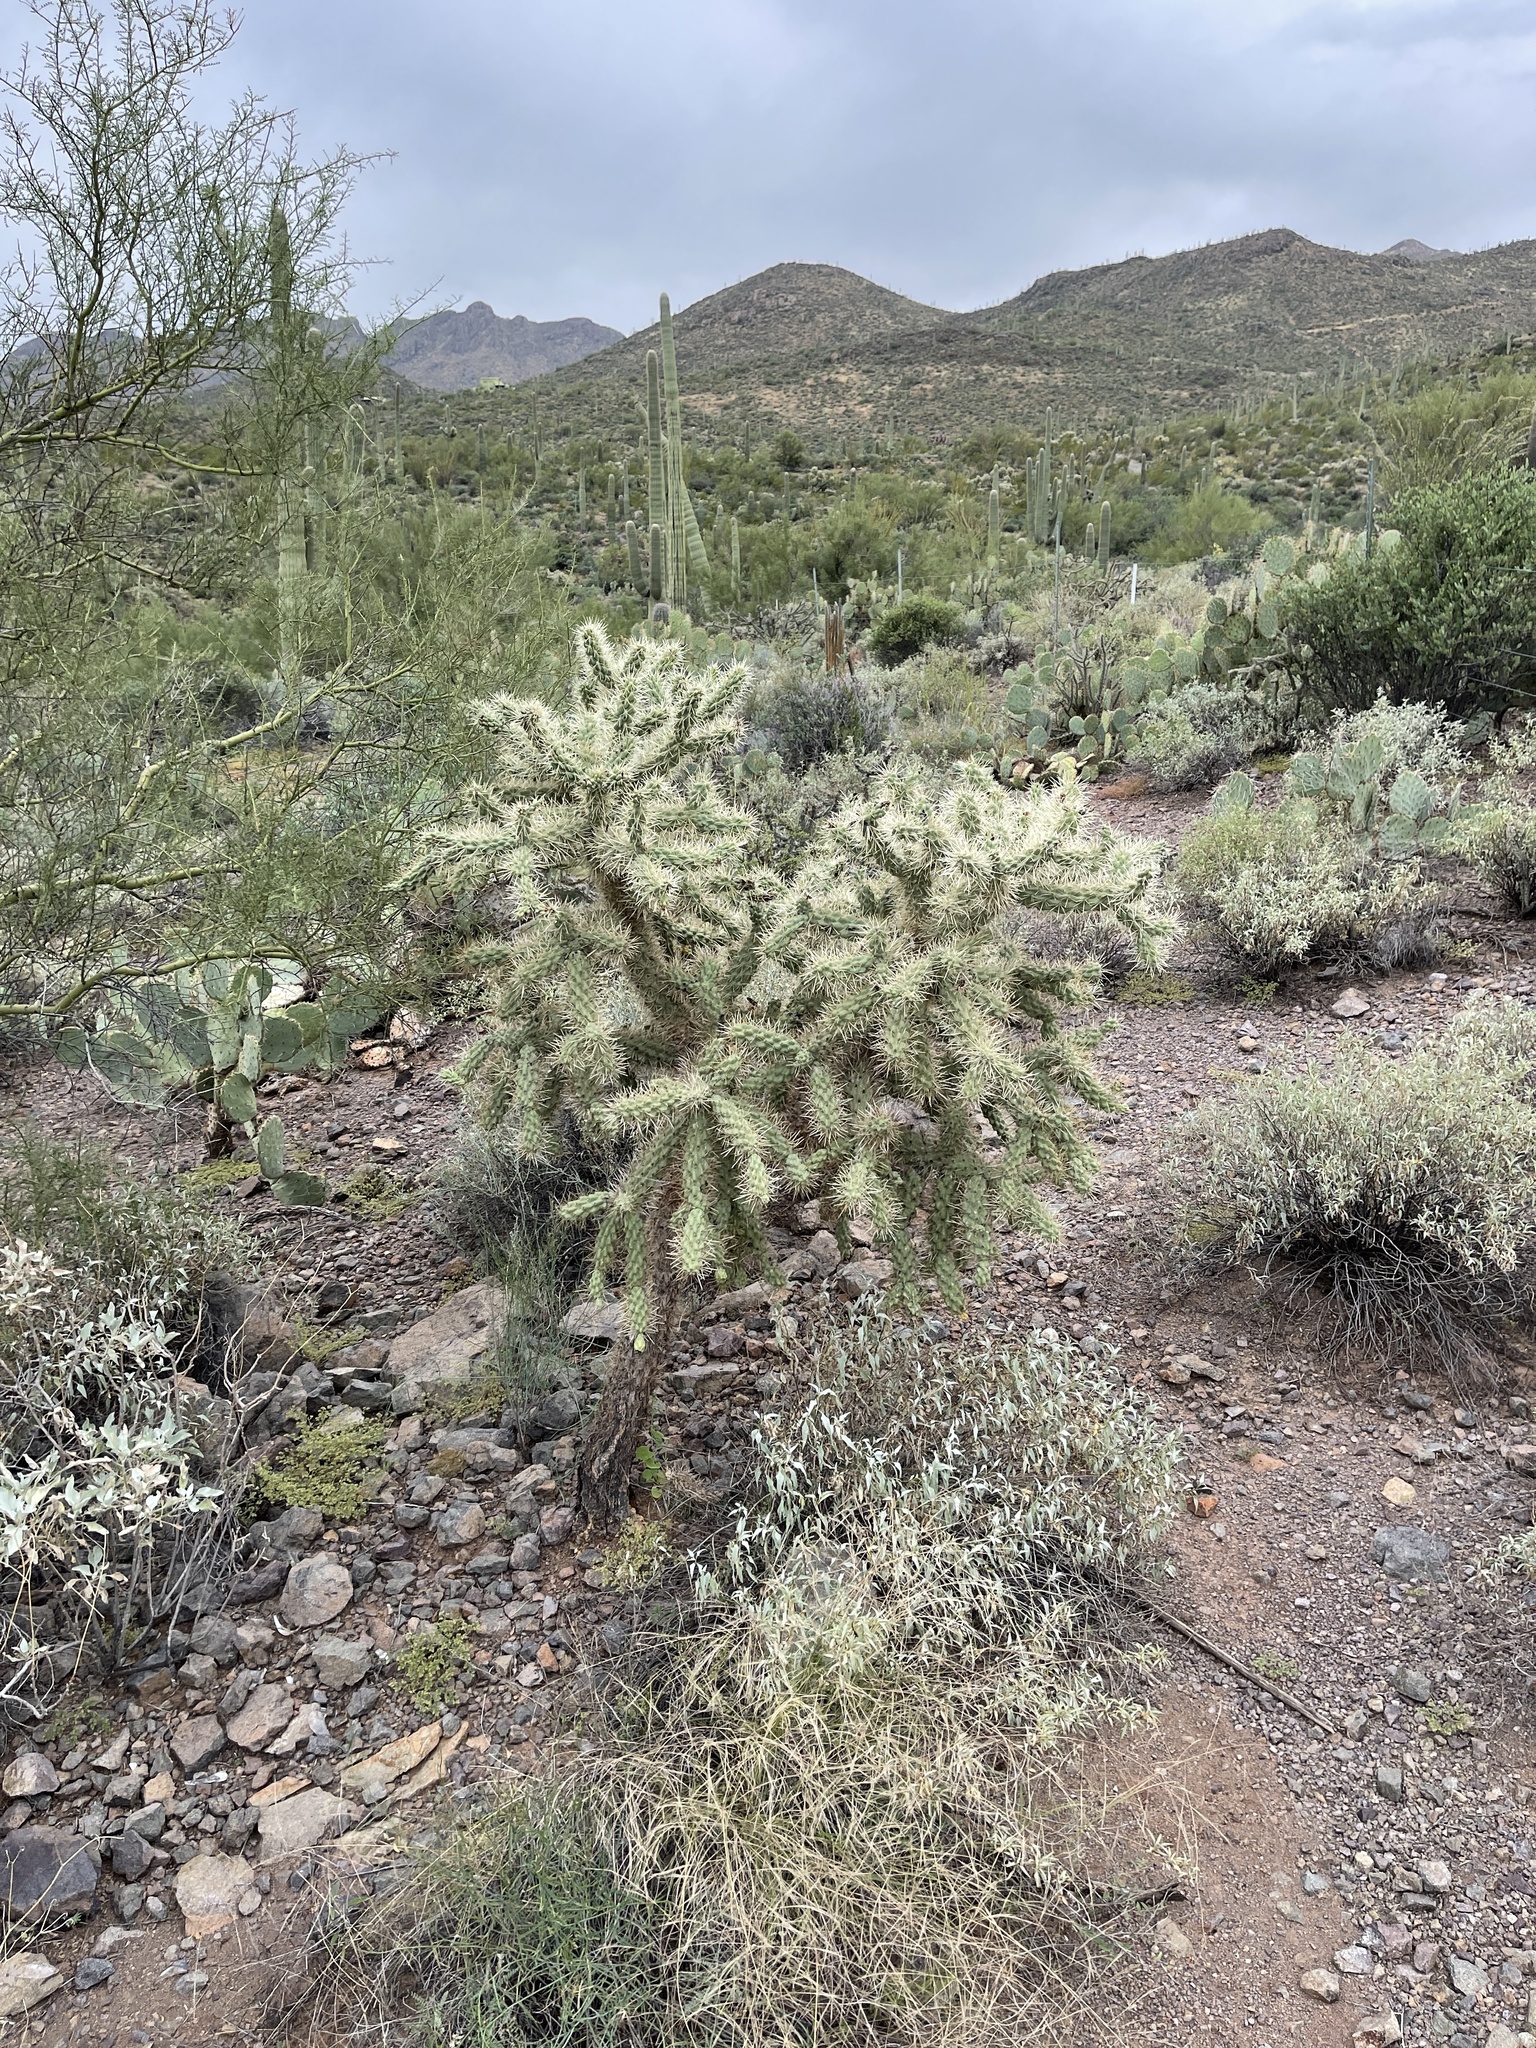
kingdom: Plantae
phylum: Tracheophyta
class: Magnoliopsida
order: Caryophyllales
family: Cactaceae
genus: Cylindropuntia
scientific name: Cylindropuntia fulgida
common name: Jumping cholla
